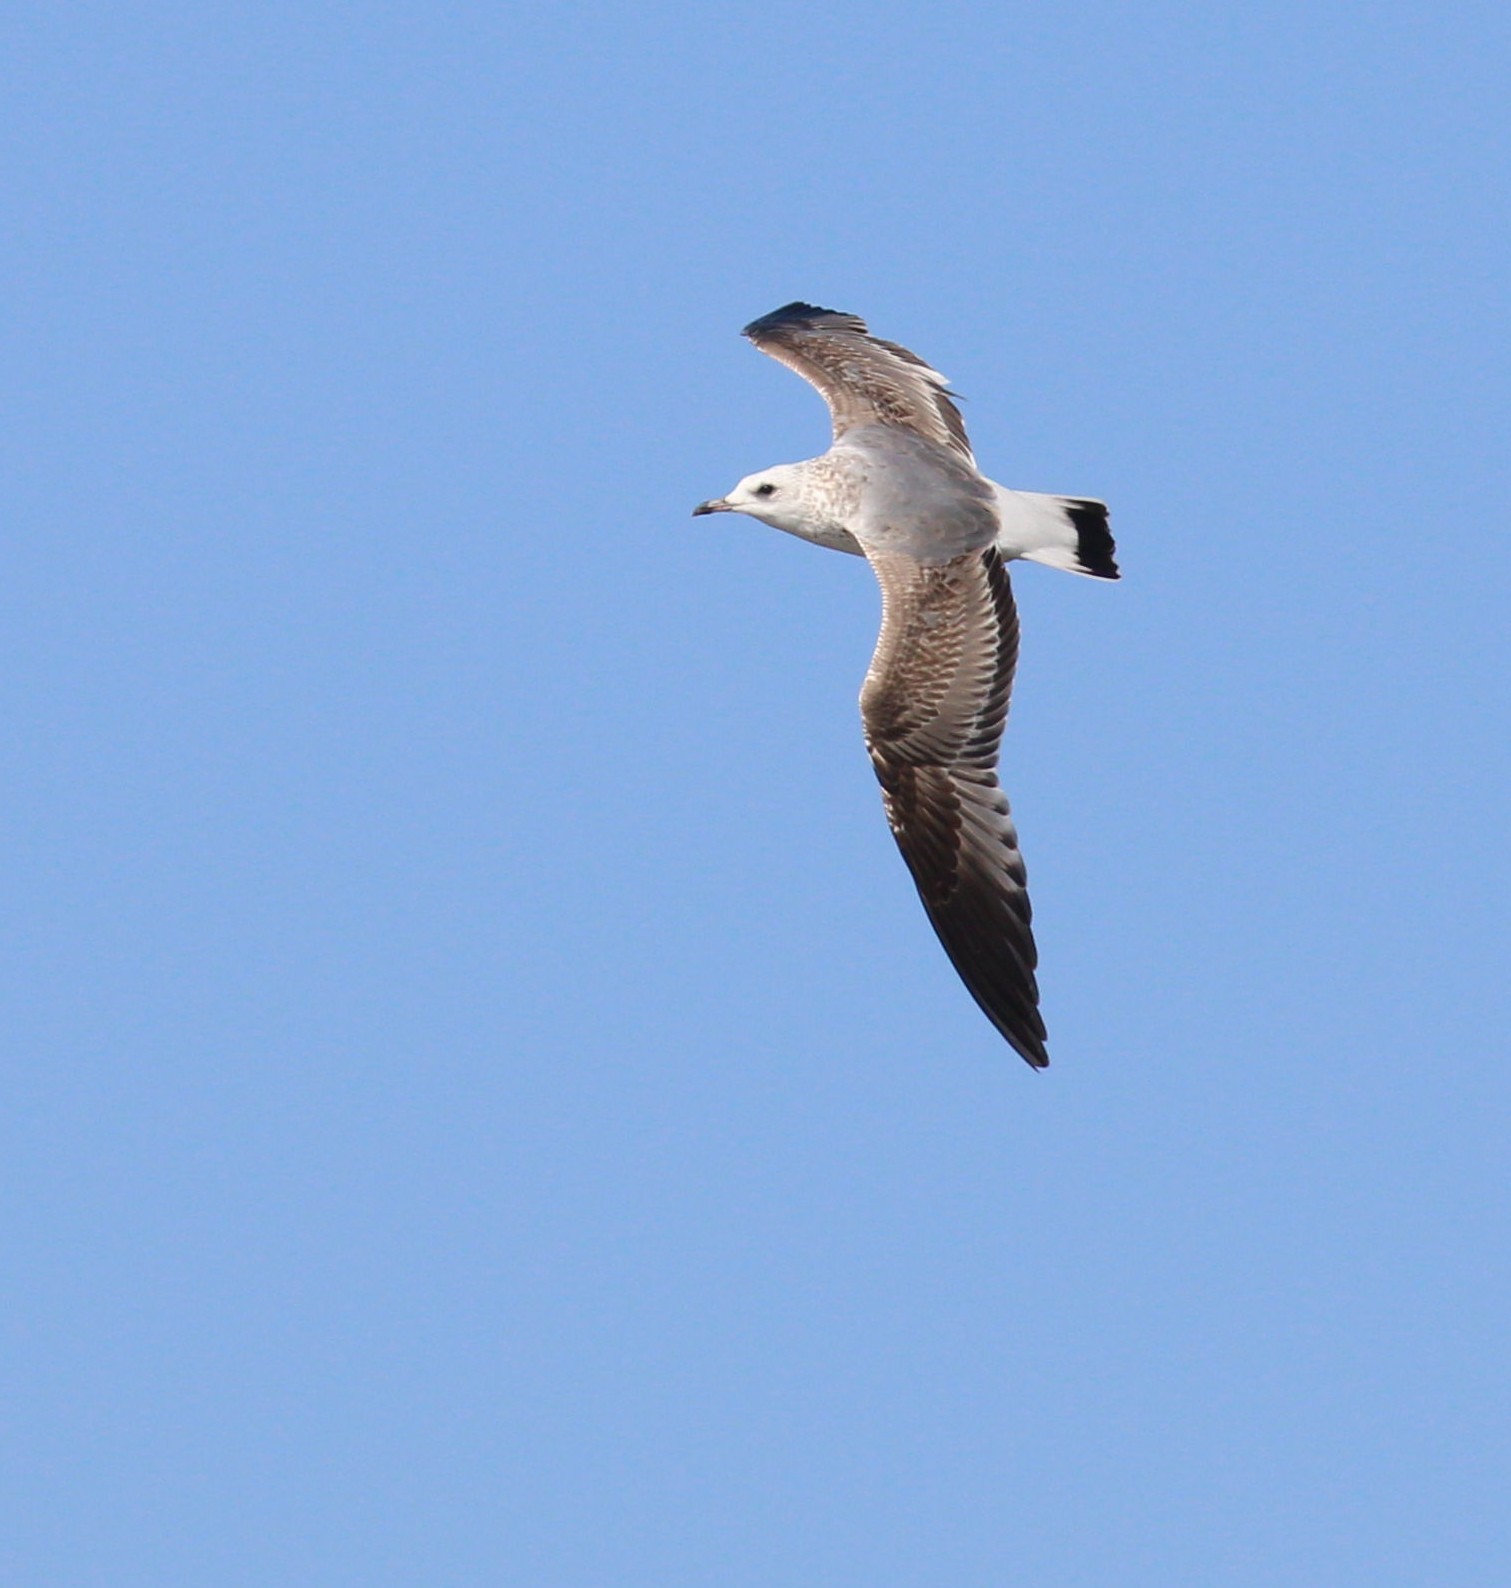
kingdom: Animalia
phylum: Chordata
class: Aves
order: Charadriiformes
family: Laridae
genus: Larus
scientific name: Larus canus
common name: Mew gull
